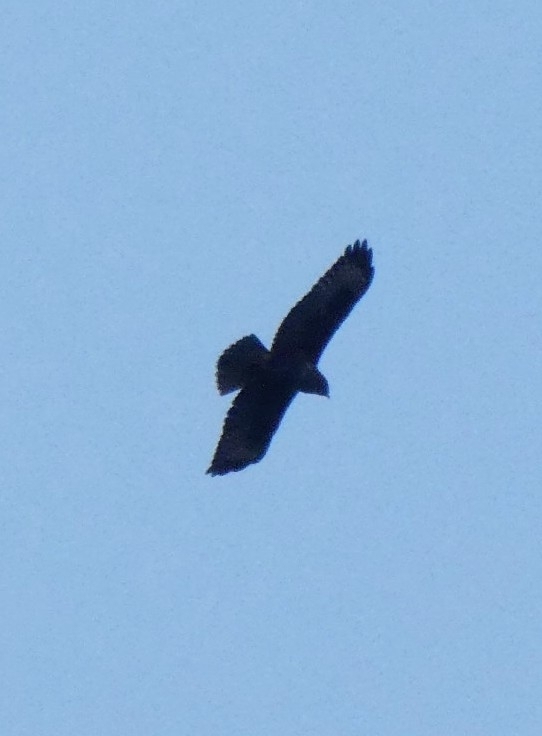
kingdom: Animalia
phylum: Chordata
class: Aves
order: Accipitriformes
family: Accipitridae
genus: Buteo
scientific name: Buteo buteo
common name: Common buzzard
